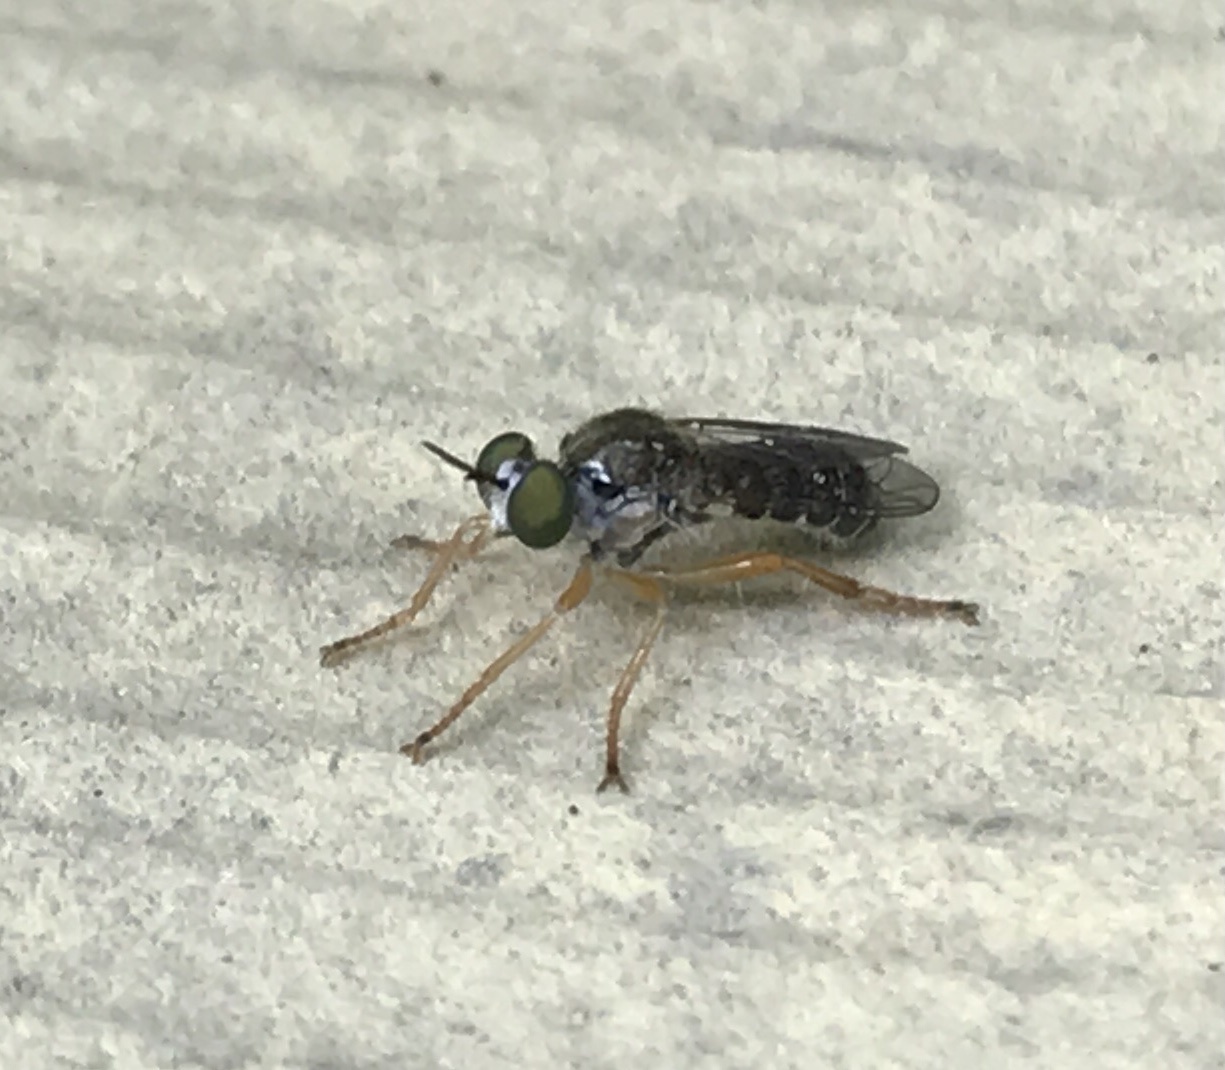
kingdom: Animalia
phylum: Arthropoda
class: Insecta
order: Diptera
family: Asilidae
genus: Atomosia
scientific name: Atomosia sayii
